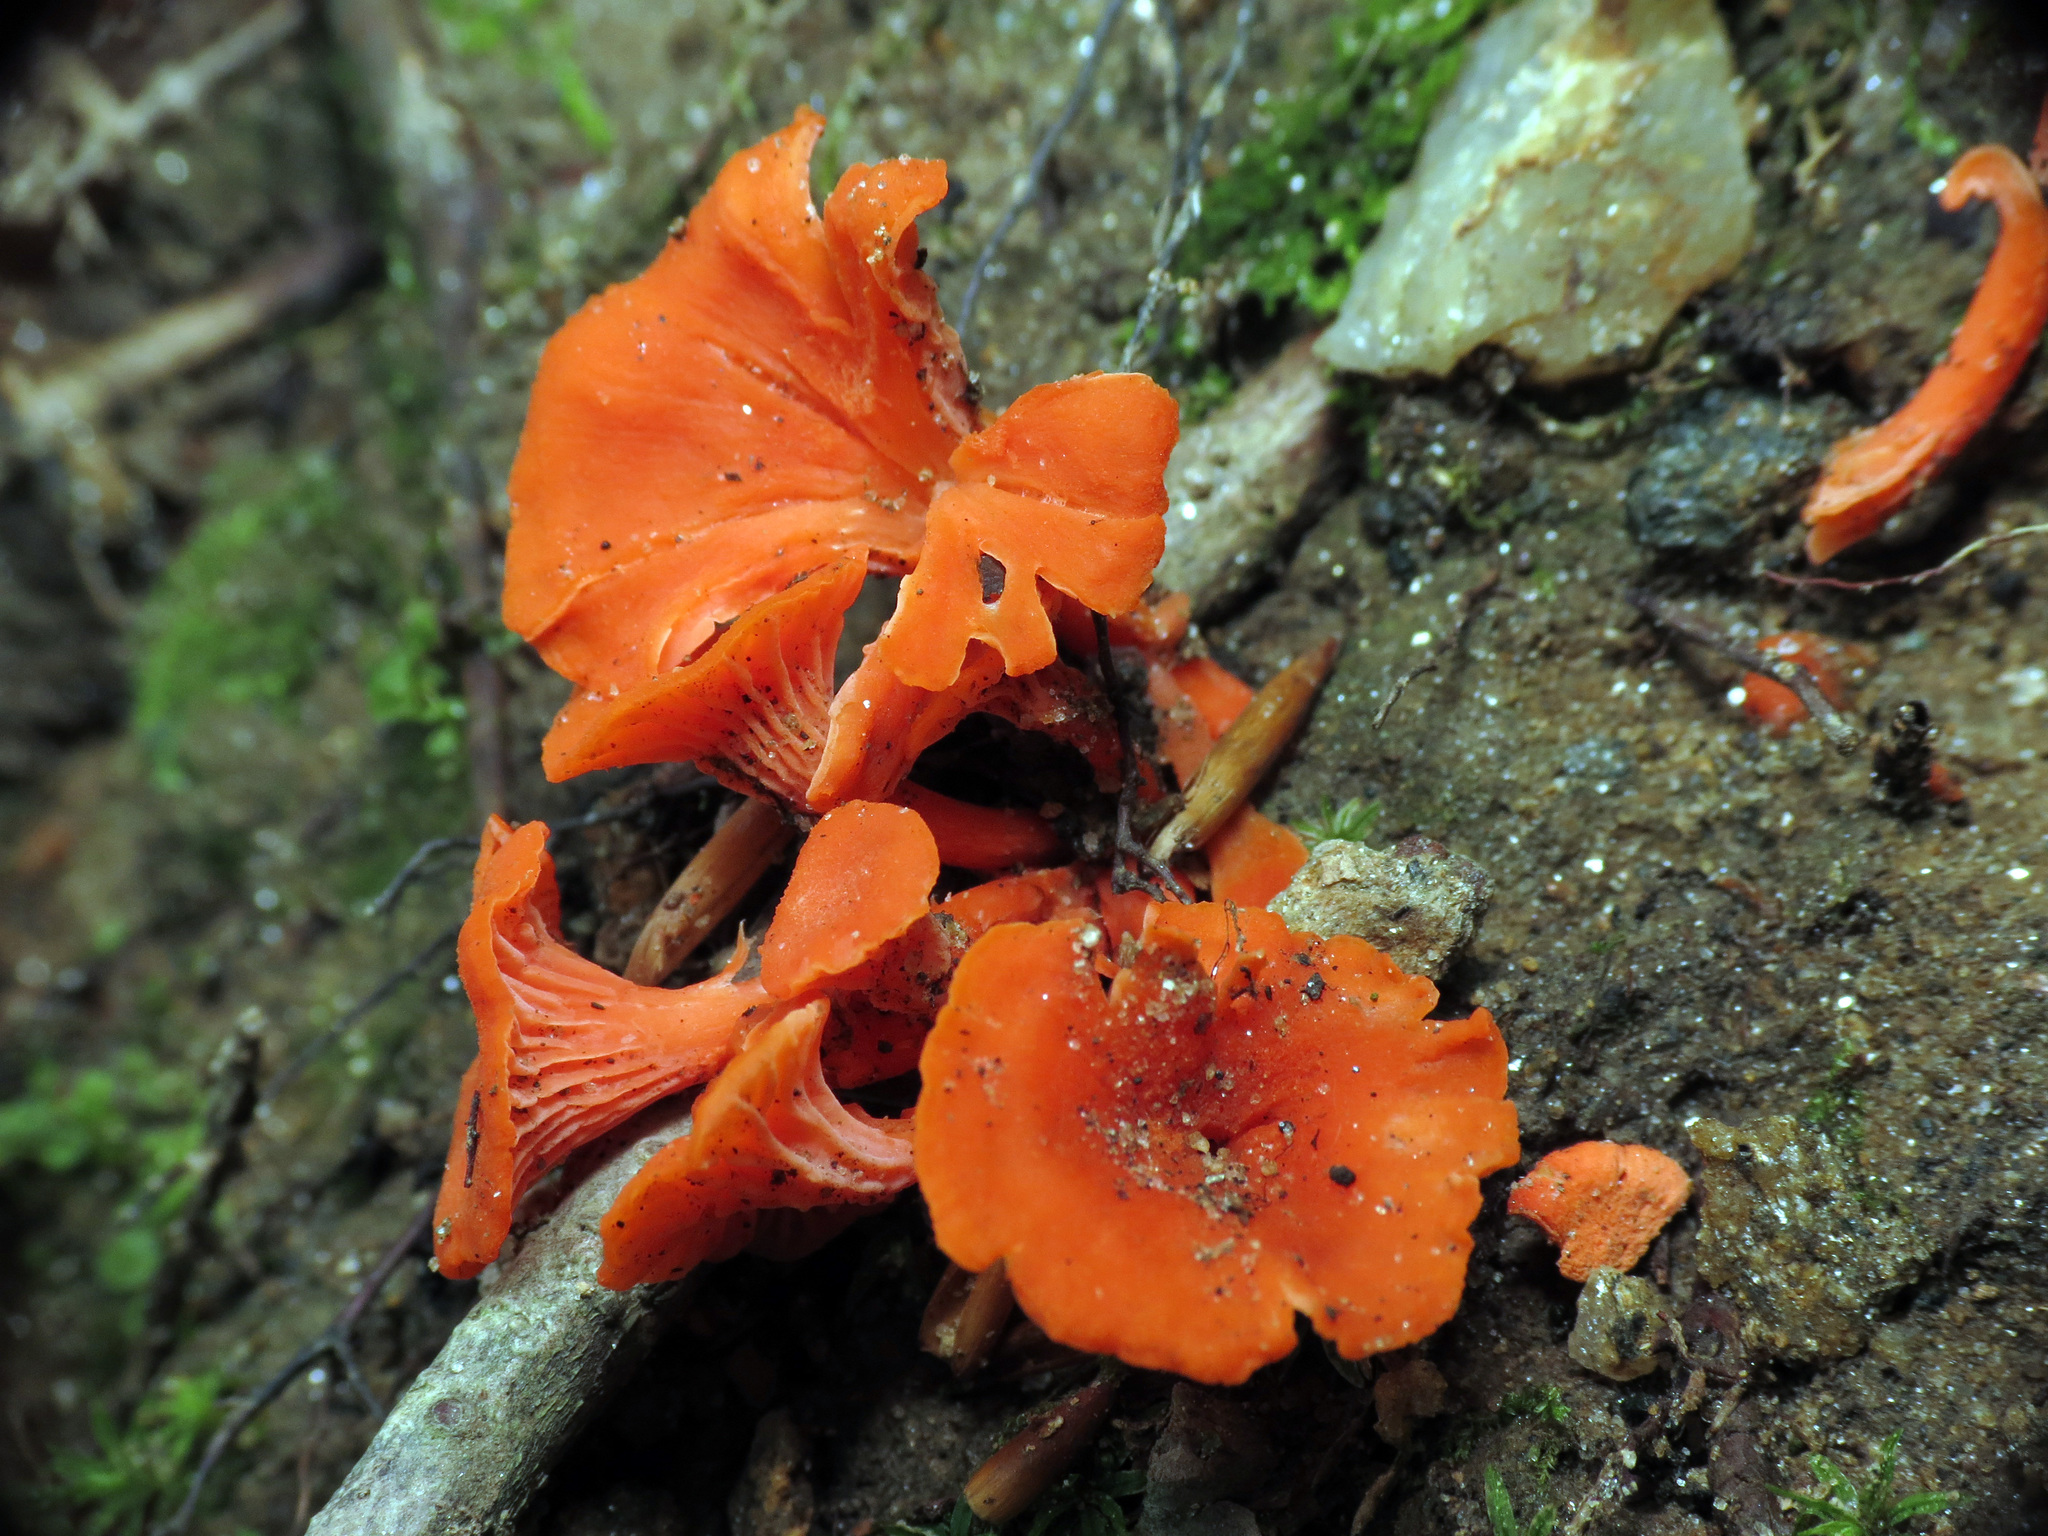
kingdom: Fungi
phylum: Basidiomycota
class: Agaricomycetes
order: Cantharellales
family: Hydnaceae
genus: Cantharellus
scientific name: Cantharellus cinnabarinus
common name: Cinnabar chanterelle
